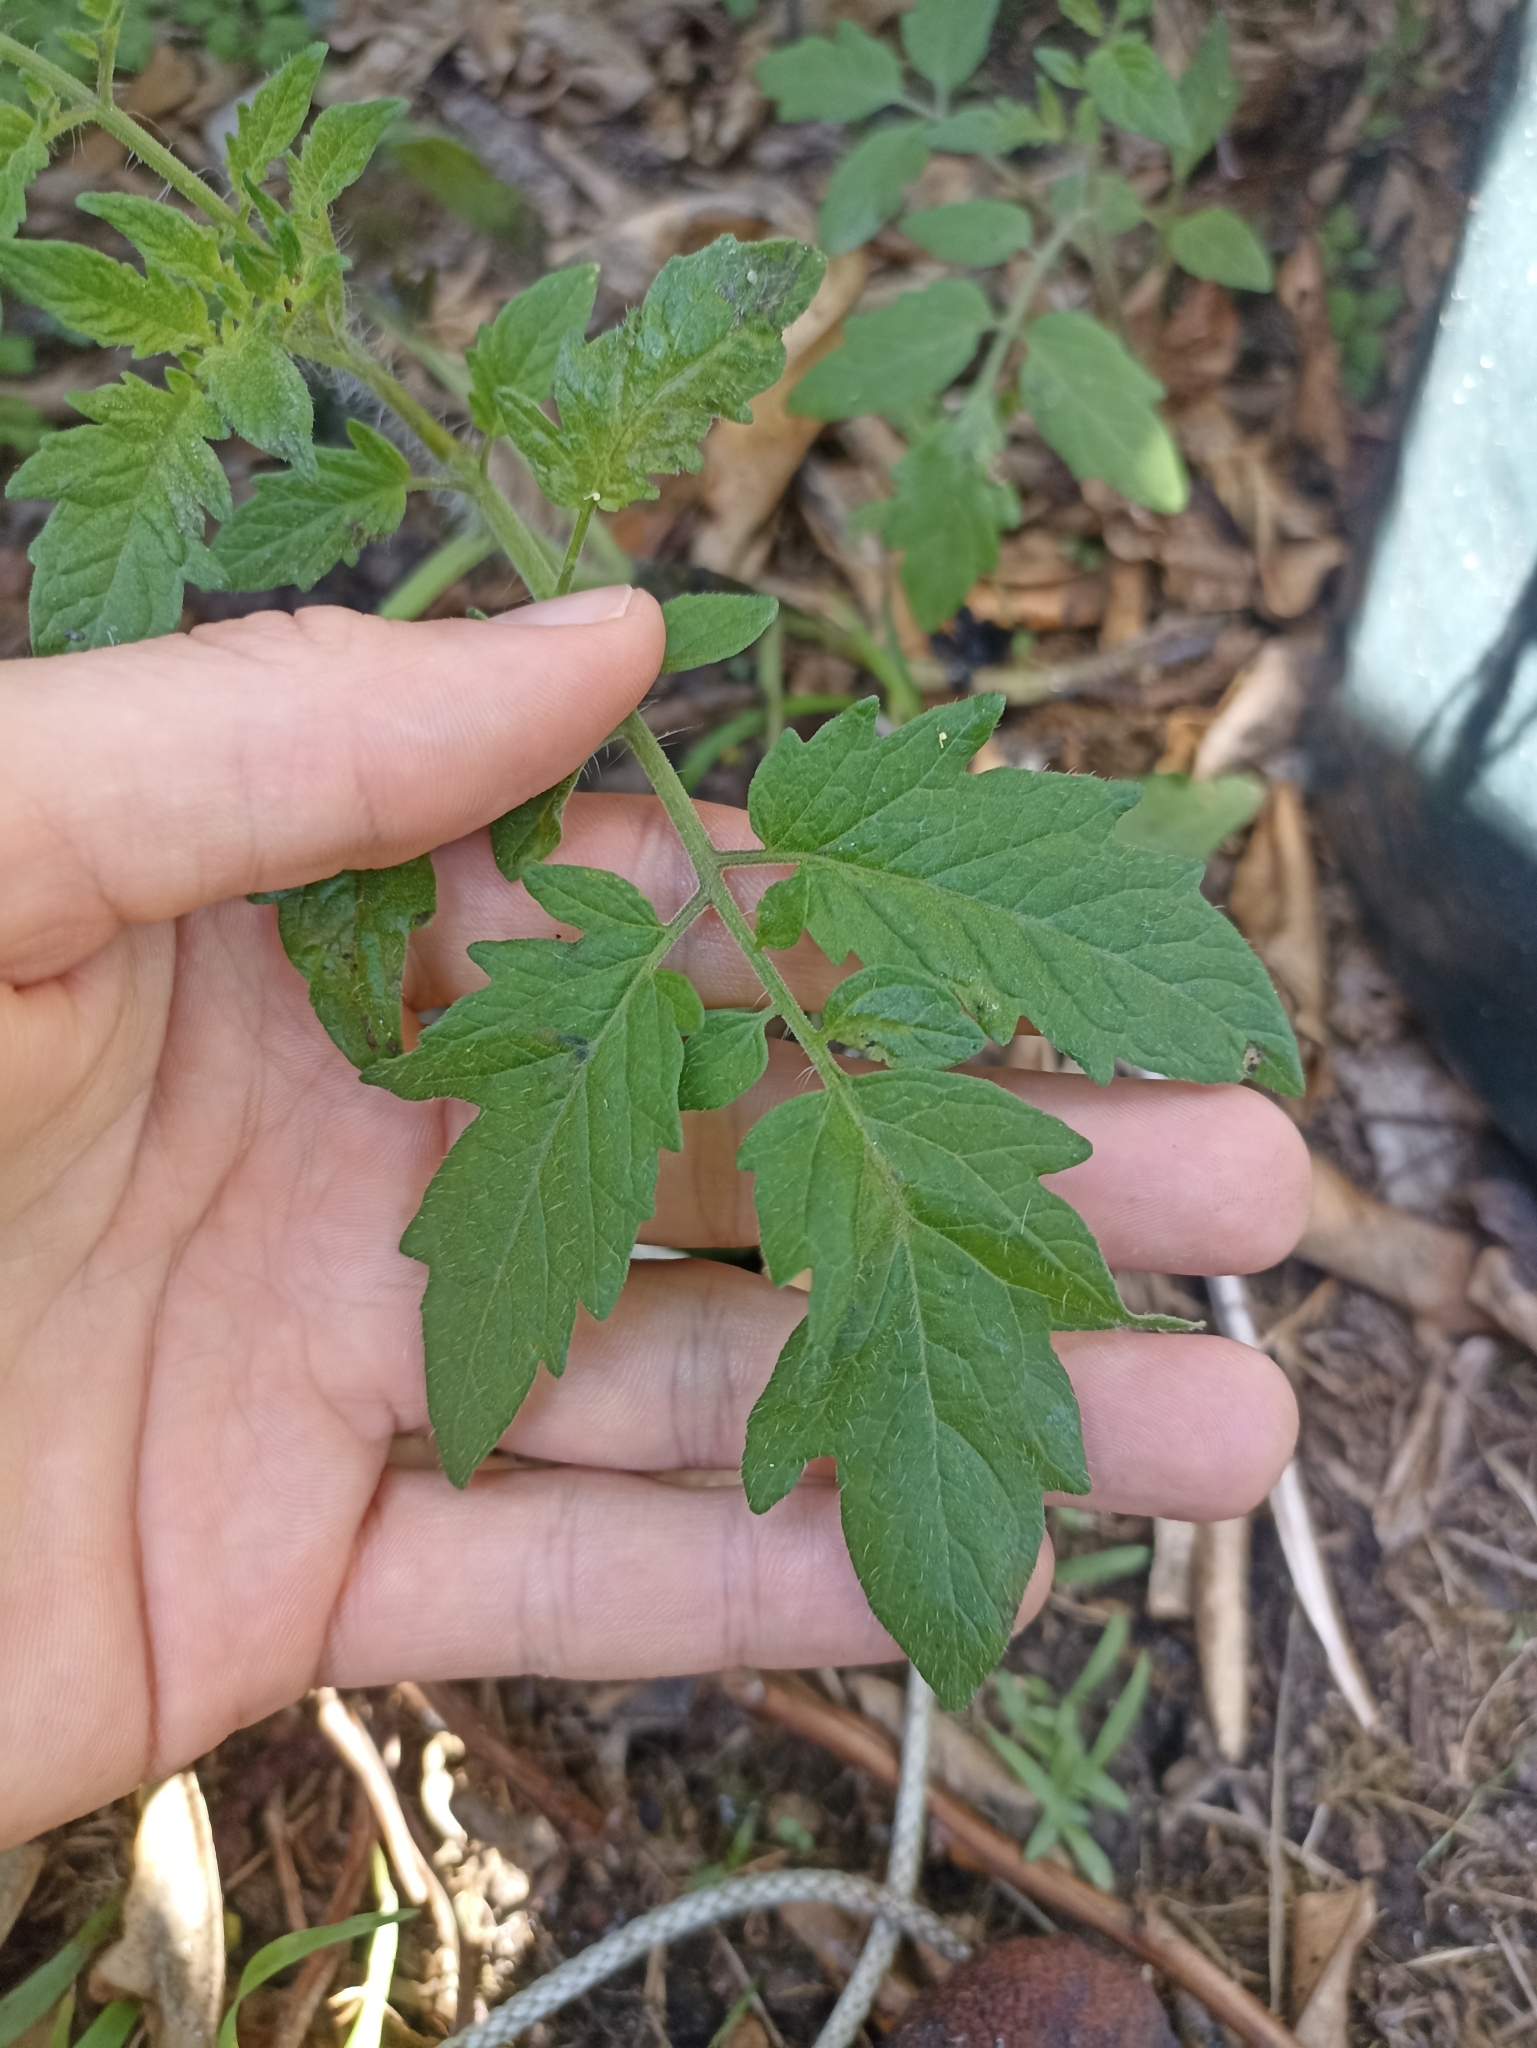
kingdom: Plantae
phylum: Tracheophyta
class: Magnoliopsida
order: Solanales
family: Solanaceae
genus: Solanum
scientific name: Solanum lycopersicum
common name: Garden tomato
